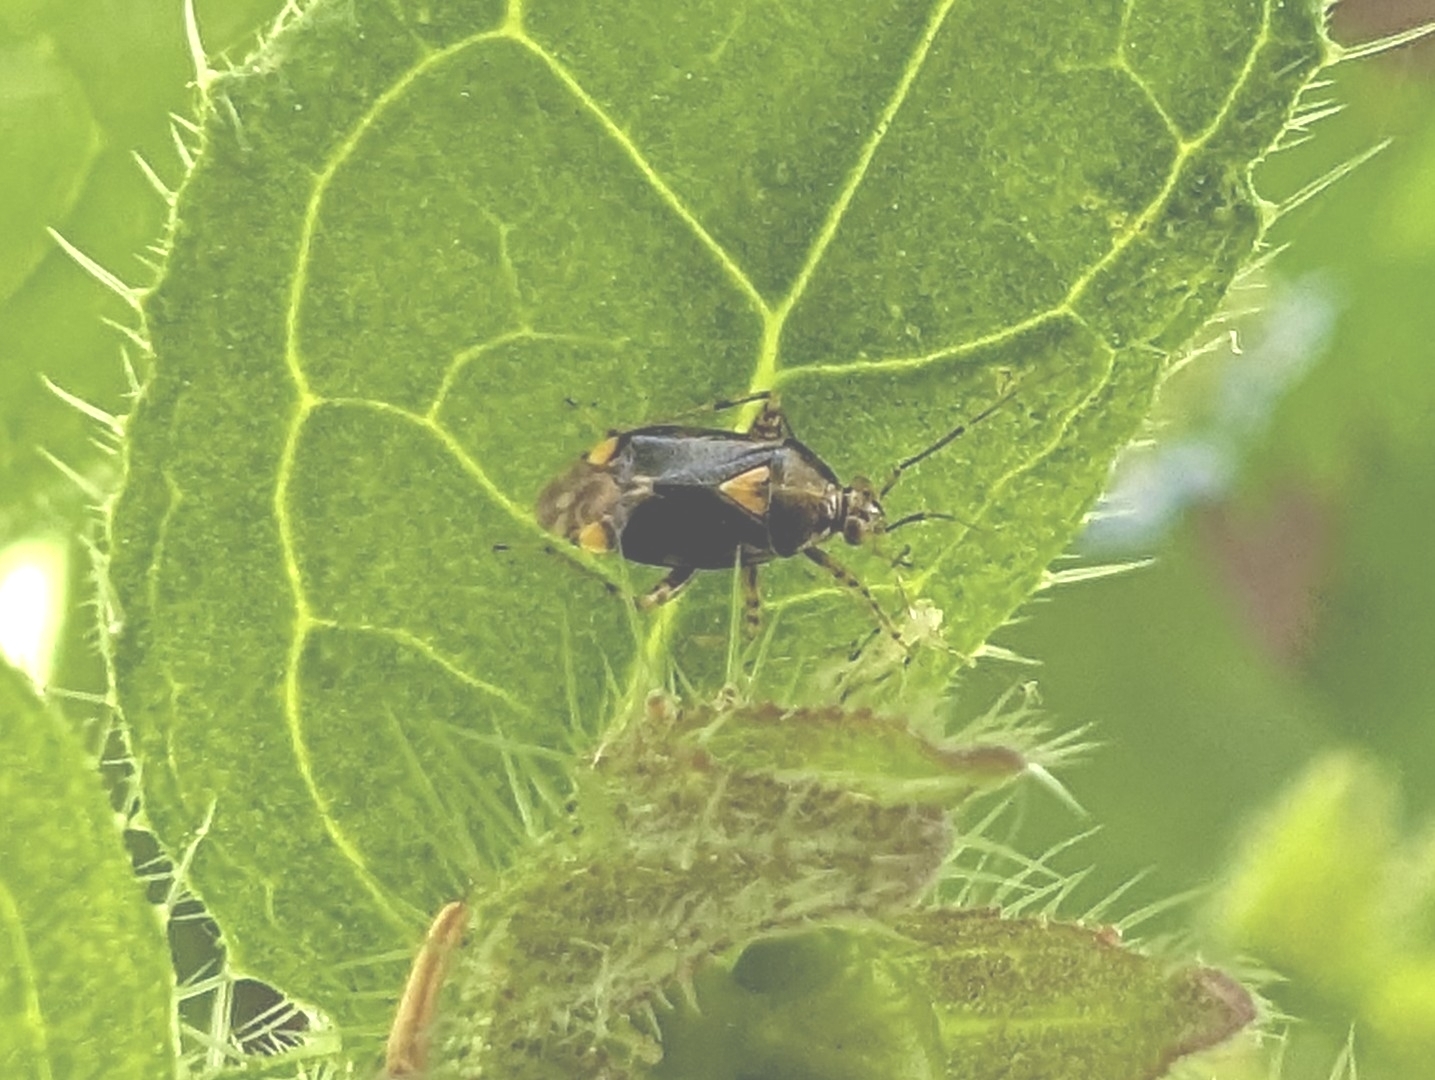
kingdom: Animalia
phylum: Arthropoda
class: Insecta
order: Hemiptera
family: Miridae
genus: Liocoris
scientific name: Liocoris tripustulatus
